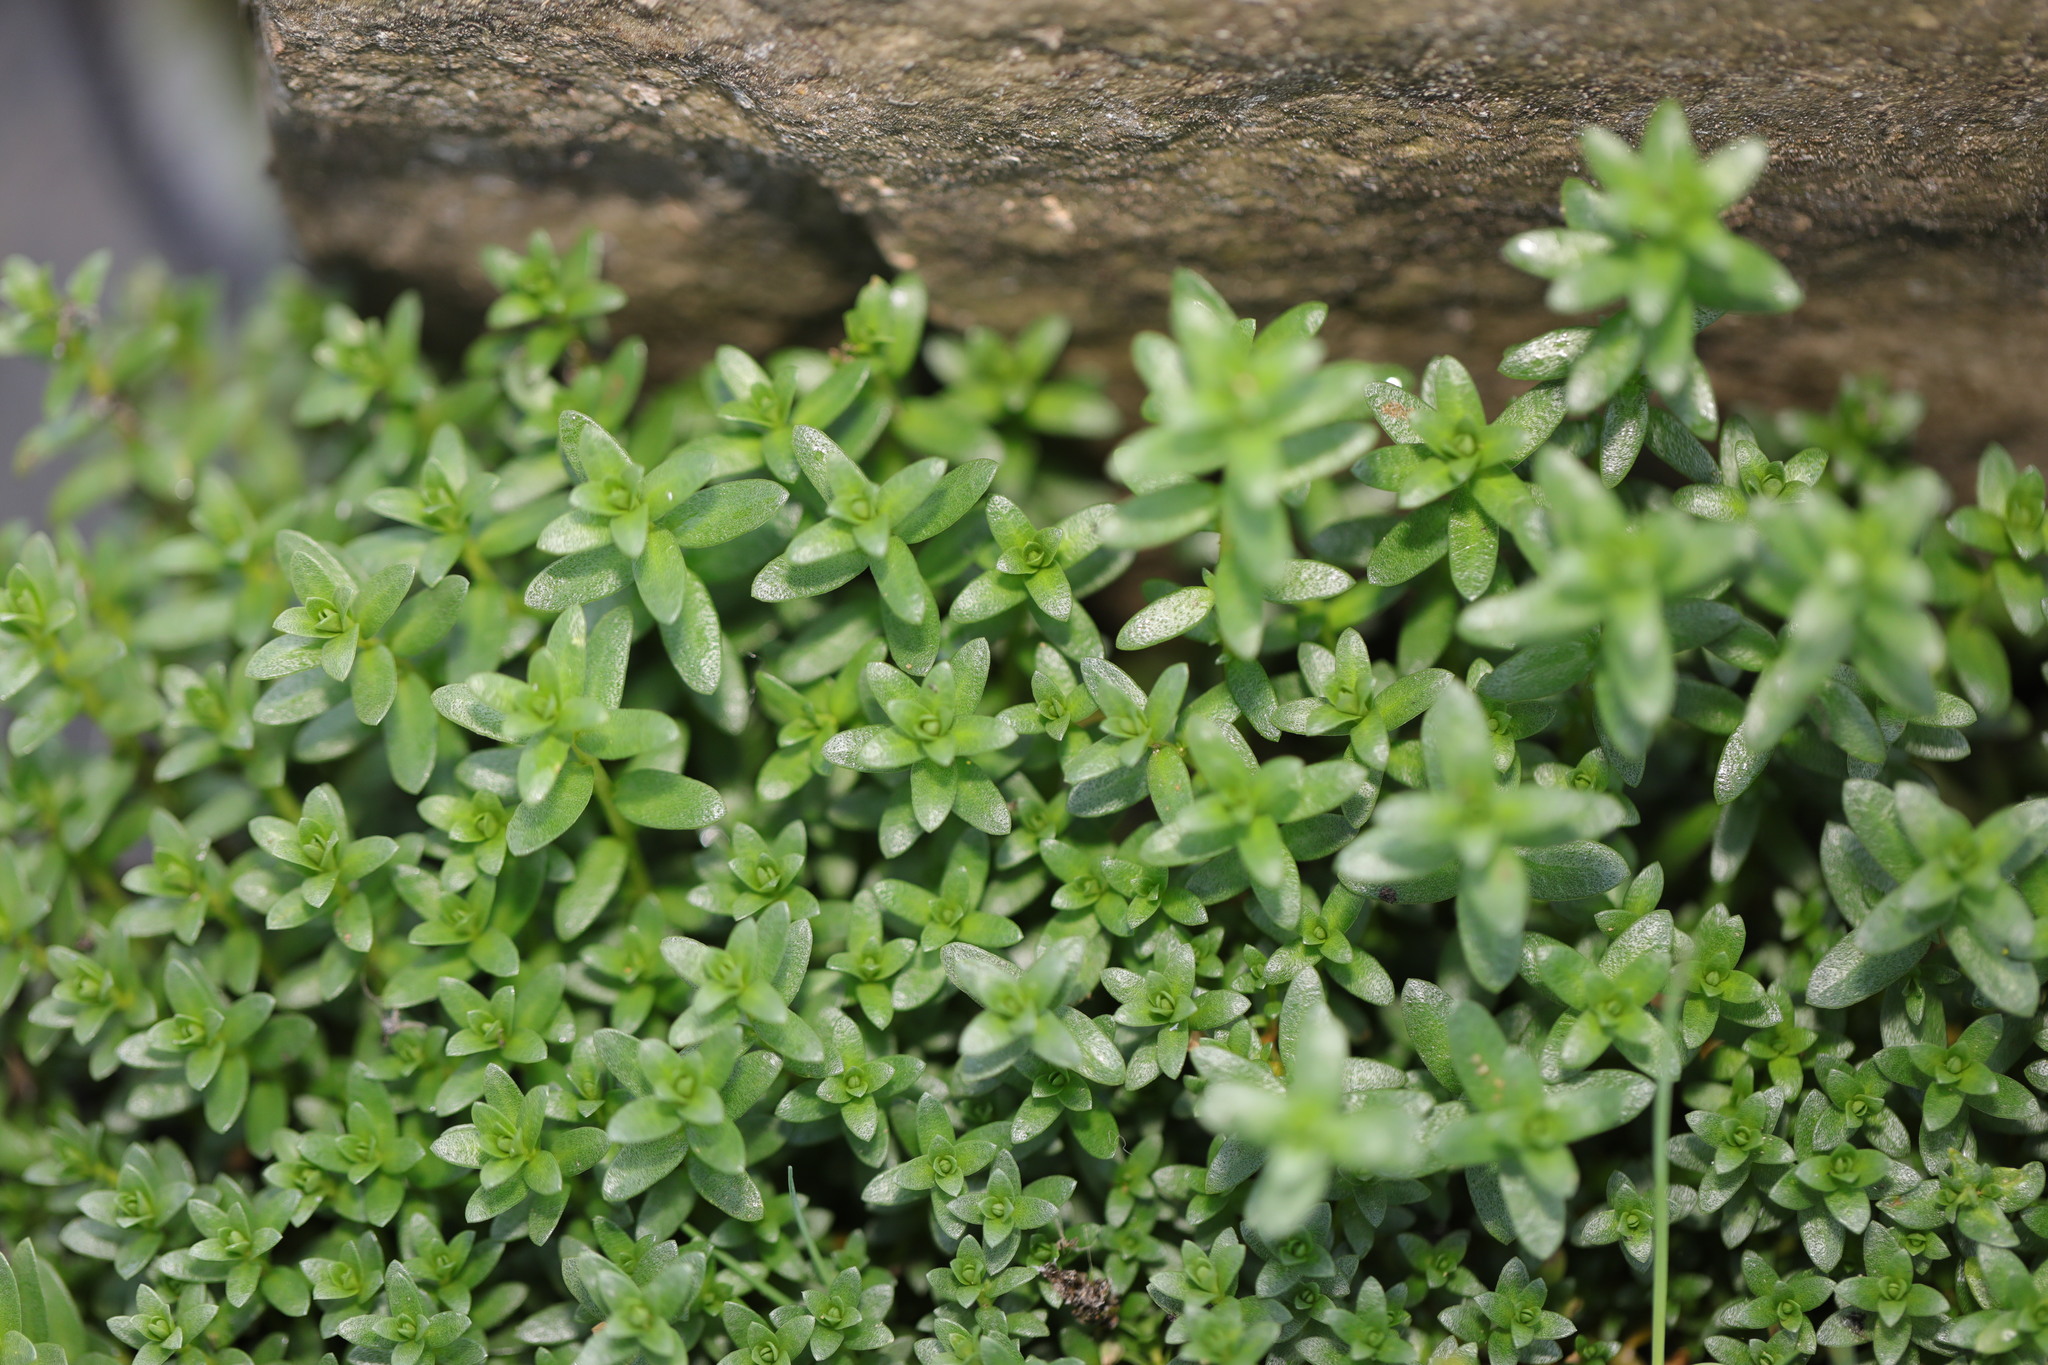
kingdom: Plantae
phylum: Tracheophyta
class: Magnoliopsida
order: Ericales
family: Primulaceae
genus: Lysimachia
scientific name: Lysimachia maritima
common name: Sea milkwort
